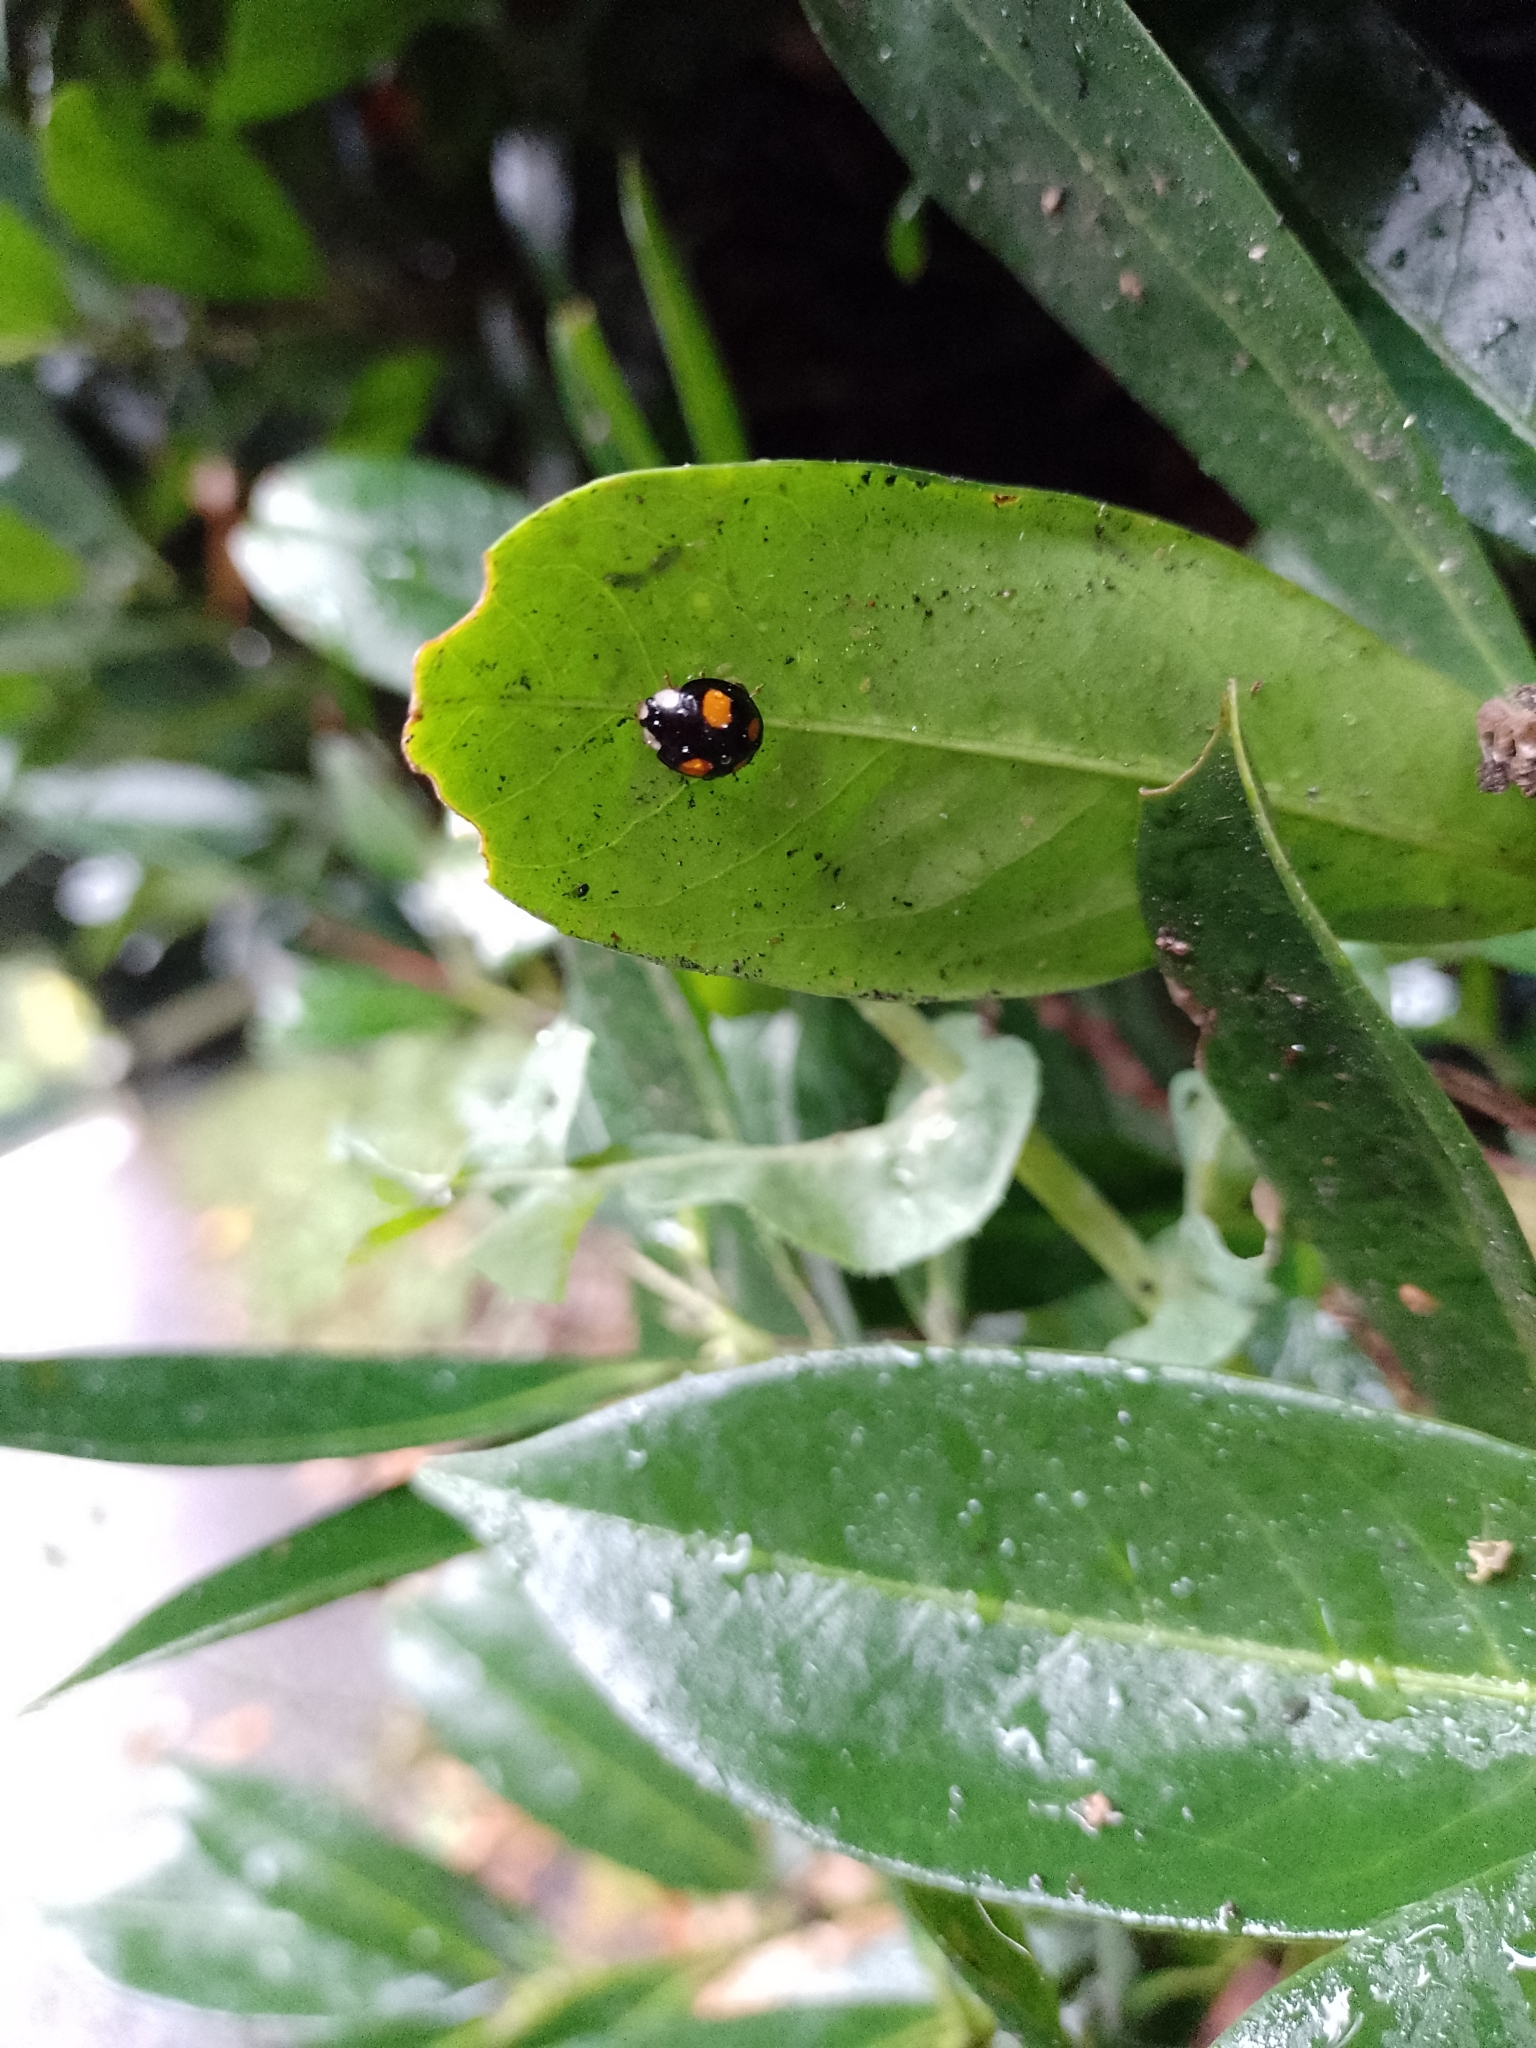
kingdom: Animalia
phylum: Arthropoda
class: Insecta
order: Coleoptera
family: Coccinellidae
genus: Harmonia
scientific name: Harmonia axyridis
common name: Harlequin ladybird
